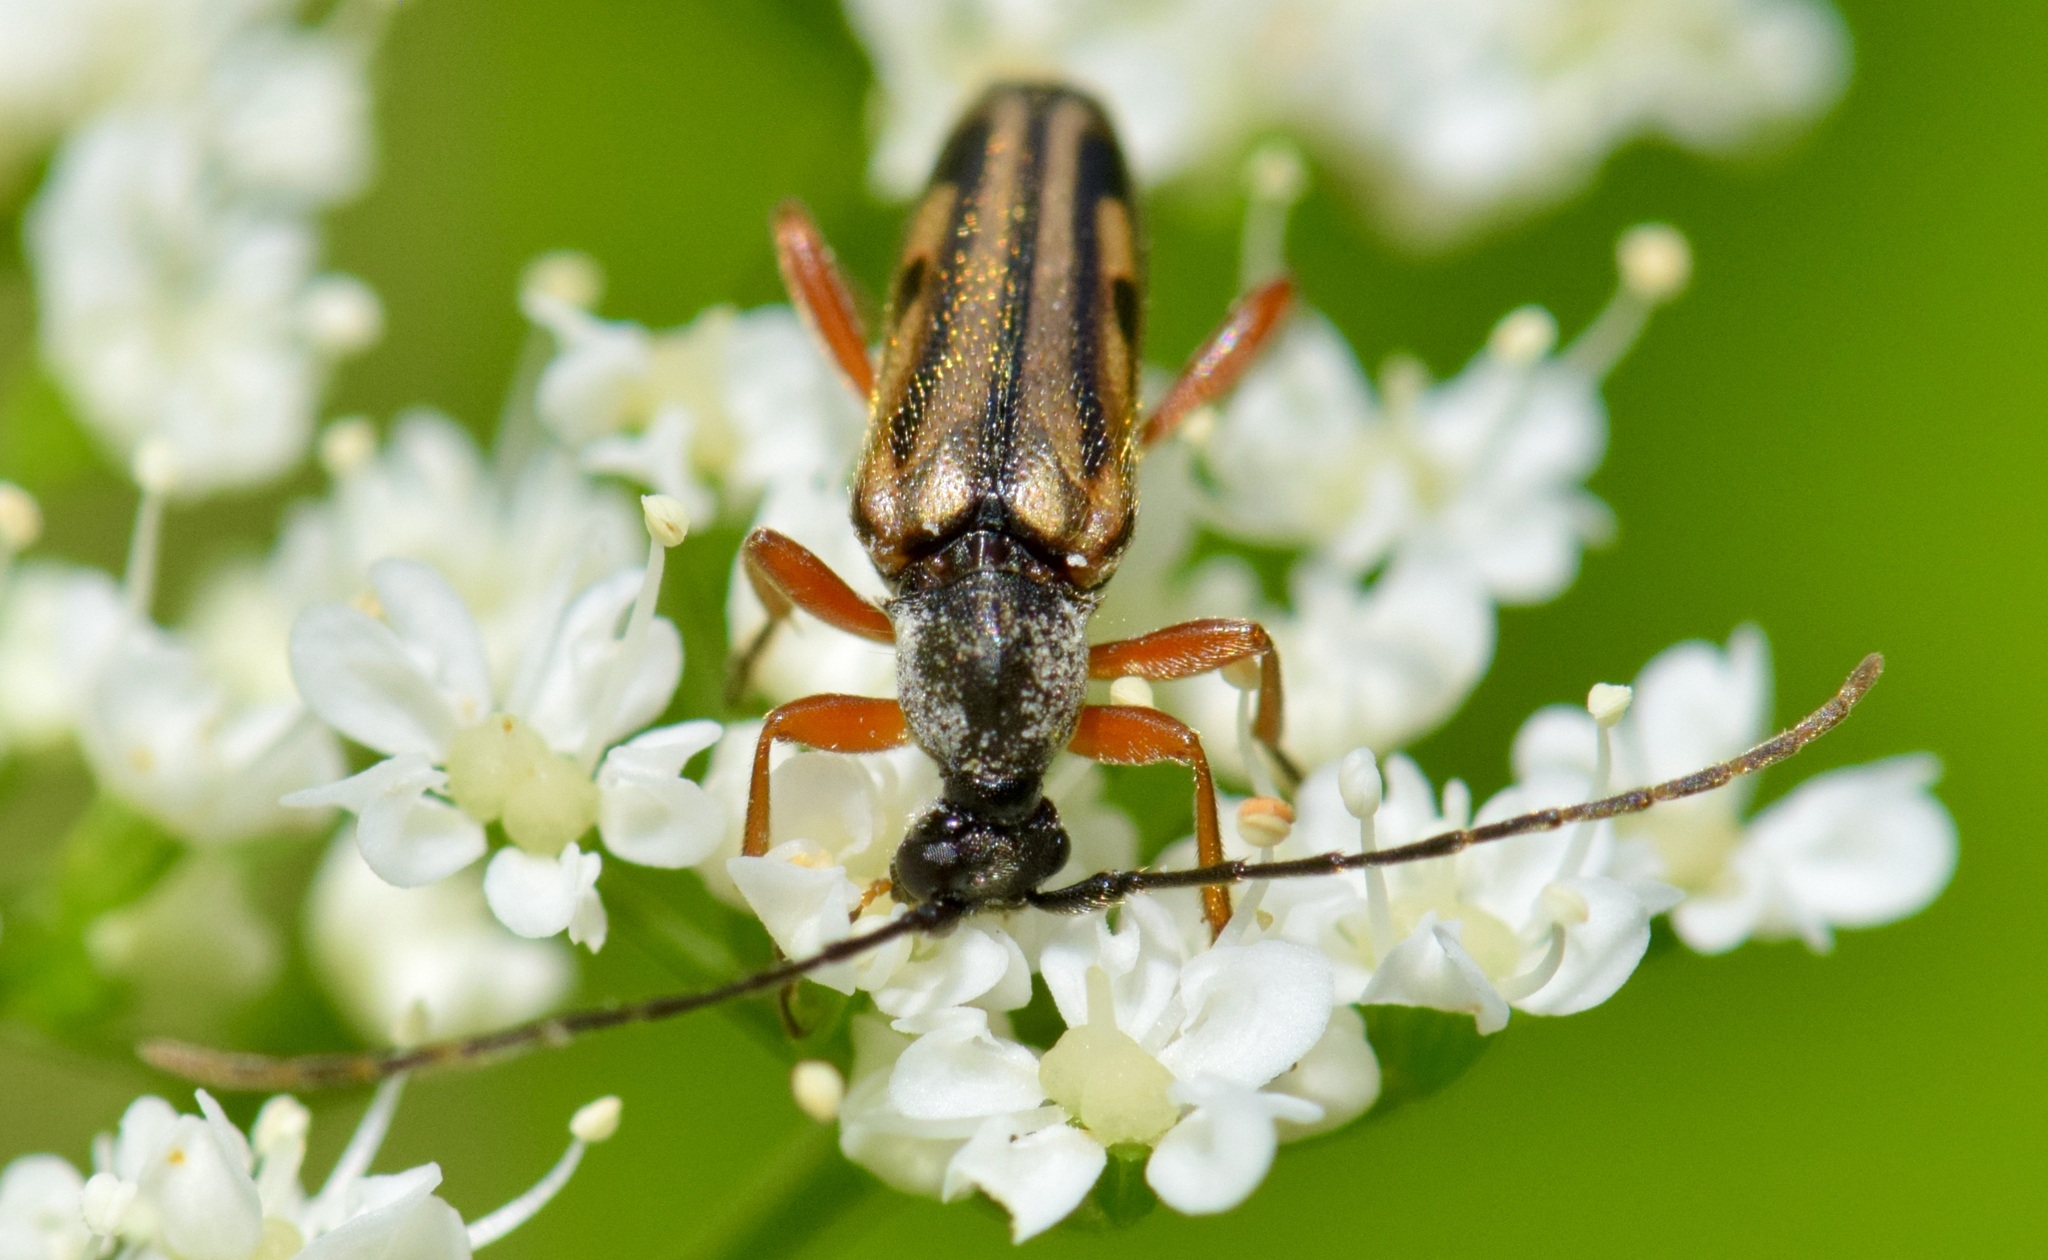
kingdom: Animalia
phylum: Arthropoda
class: Insecta
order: Coleoptera
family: Cerambycidae
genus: Analeptura
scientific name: Analeptura lineola
